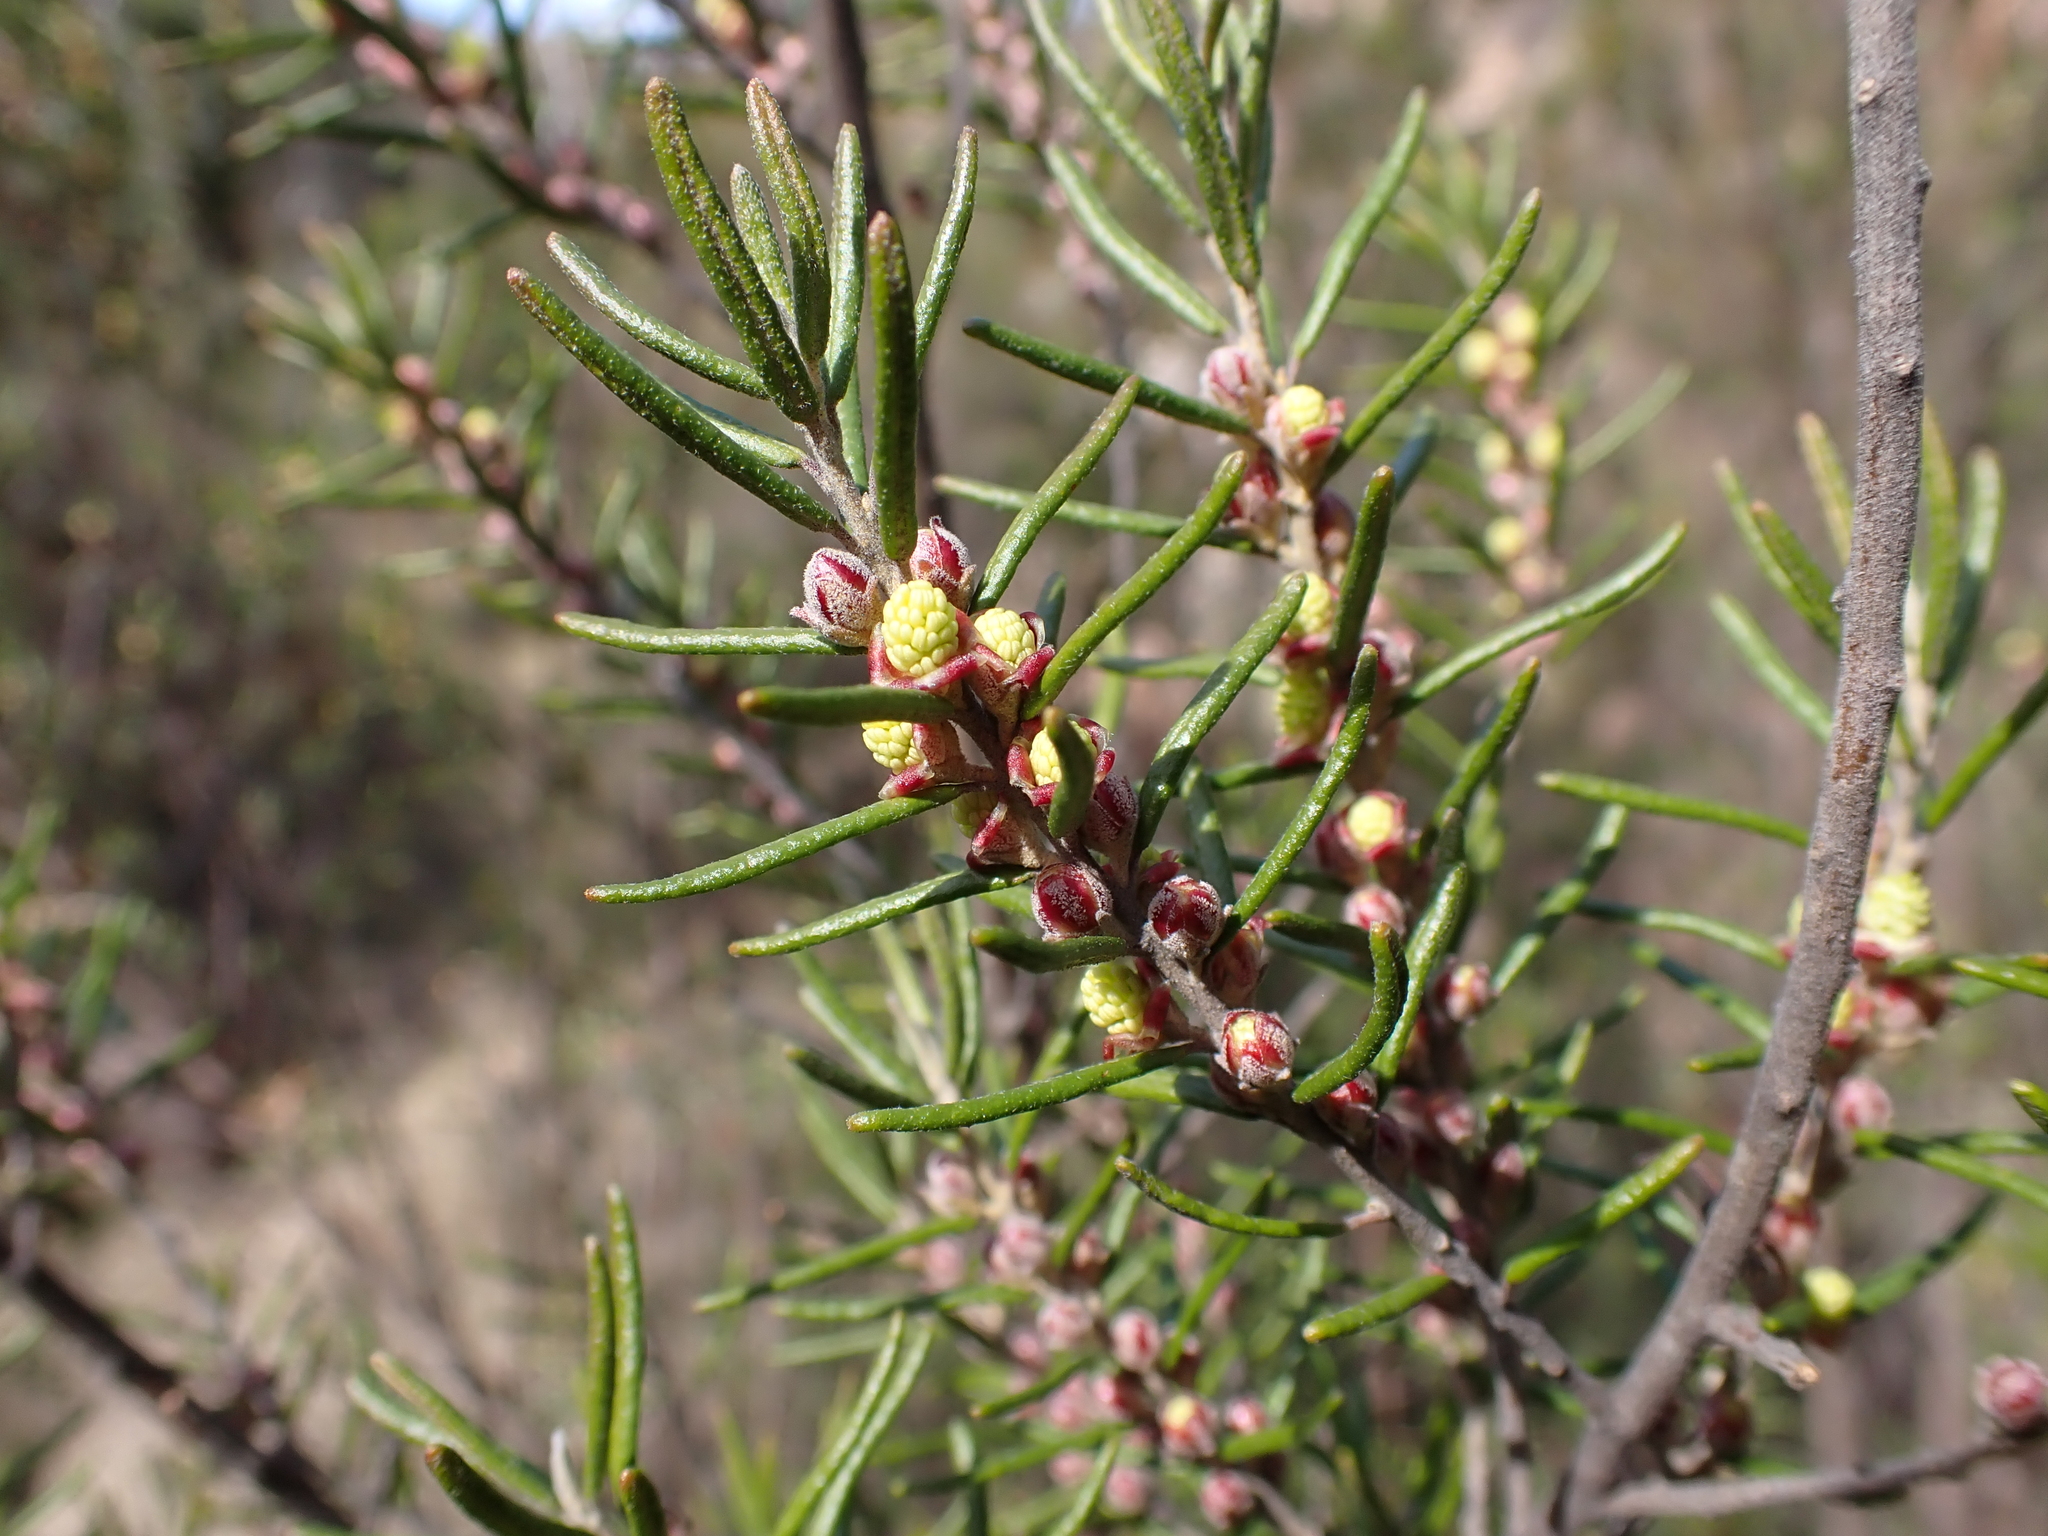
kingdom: Plantae
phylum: Tracheophyta
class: Magnoliopsida
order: Malpighiales
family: Euphorbiaceae
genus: Bertya
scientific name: Bertya tasmanica
